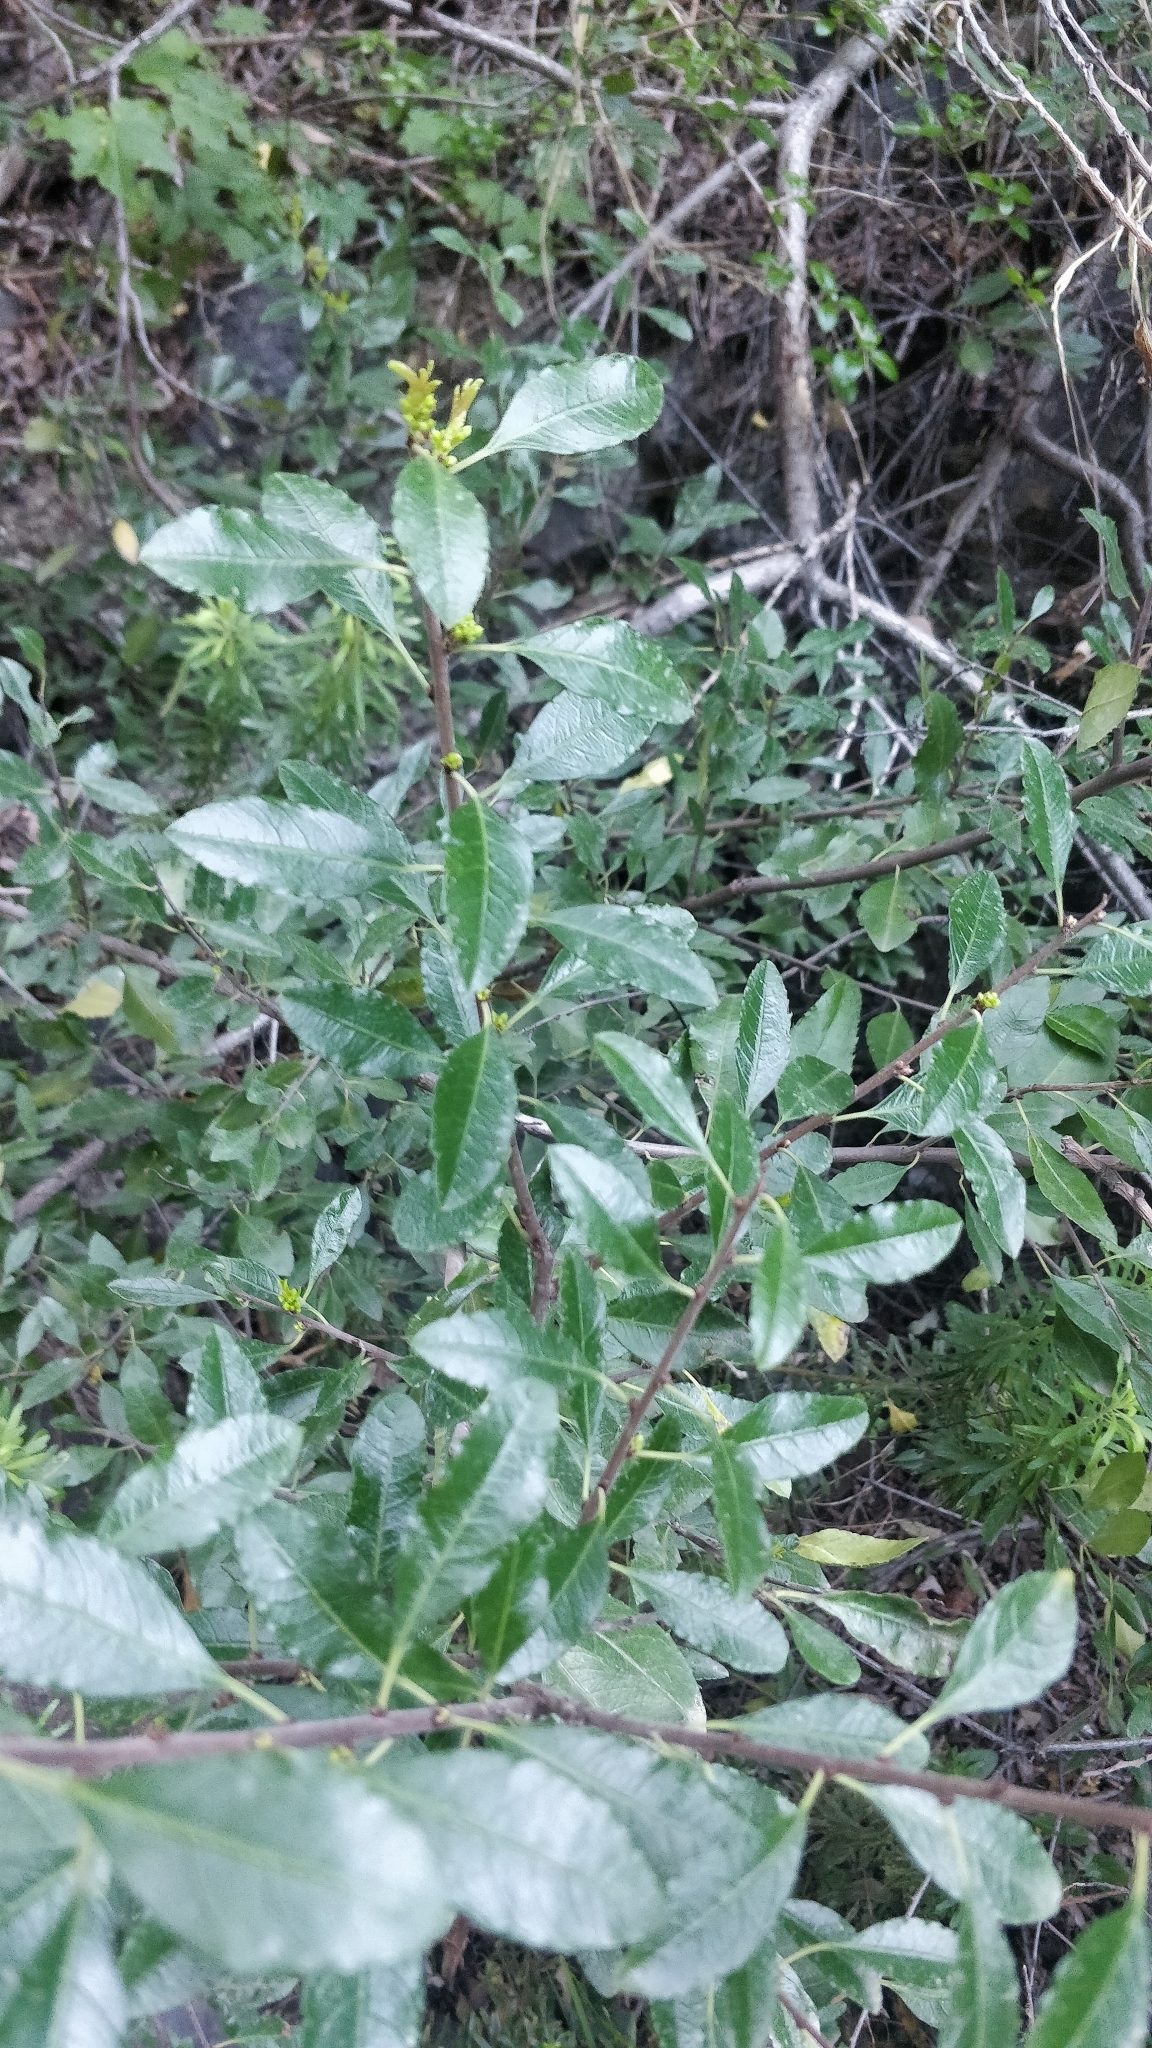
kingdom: Plantae
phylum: Tracheophyta
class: Magnoliopsida
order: Rosales
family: Rhamnaceae
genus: Rhamnus
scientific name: Rhamnus crenulata
